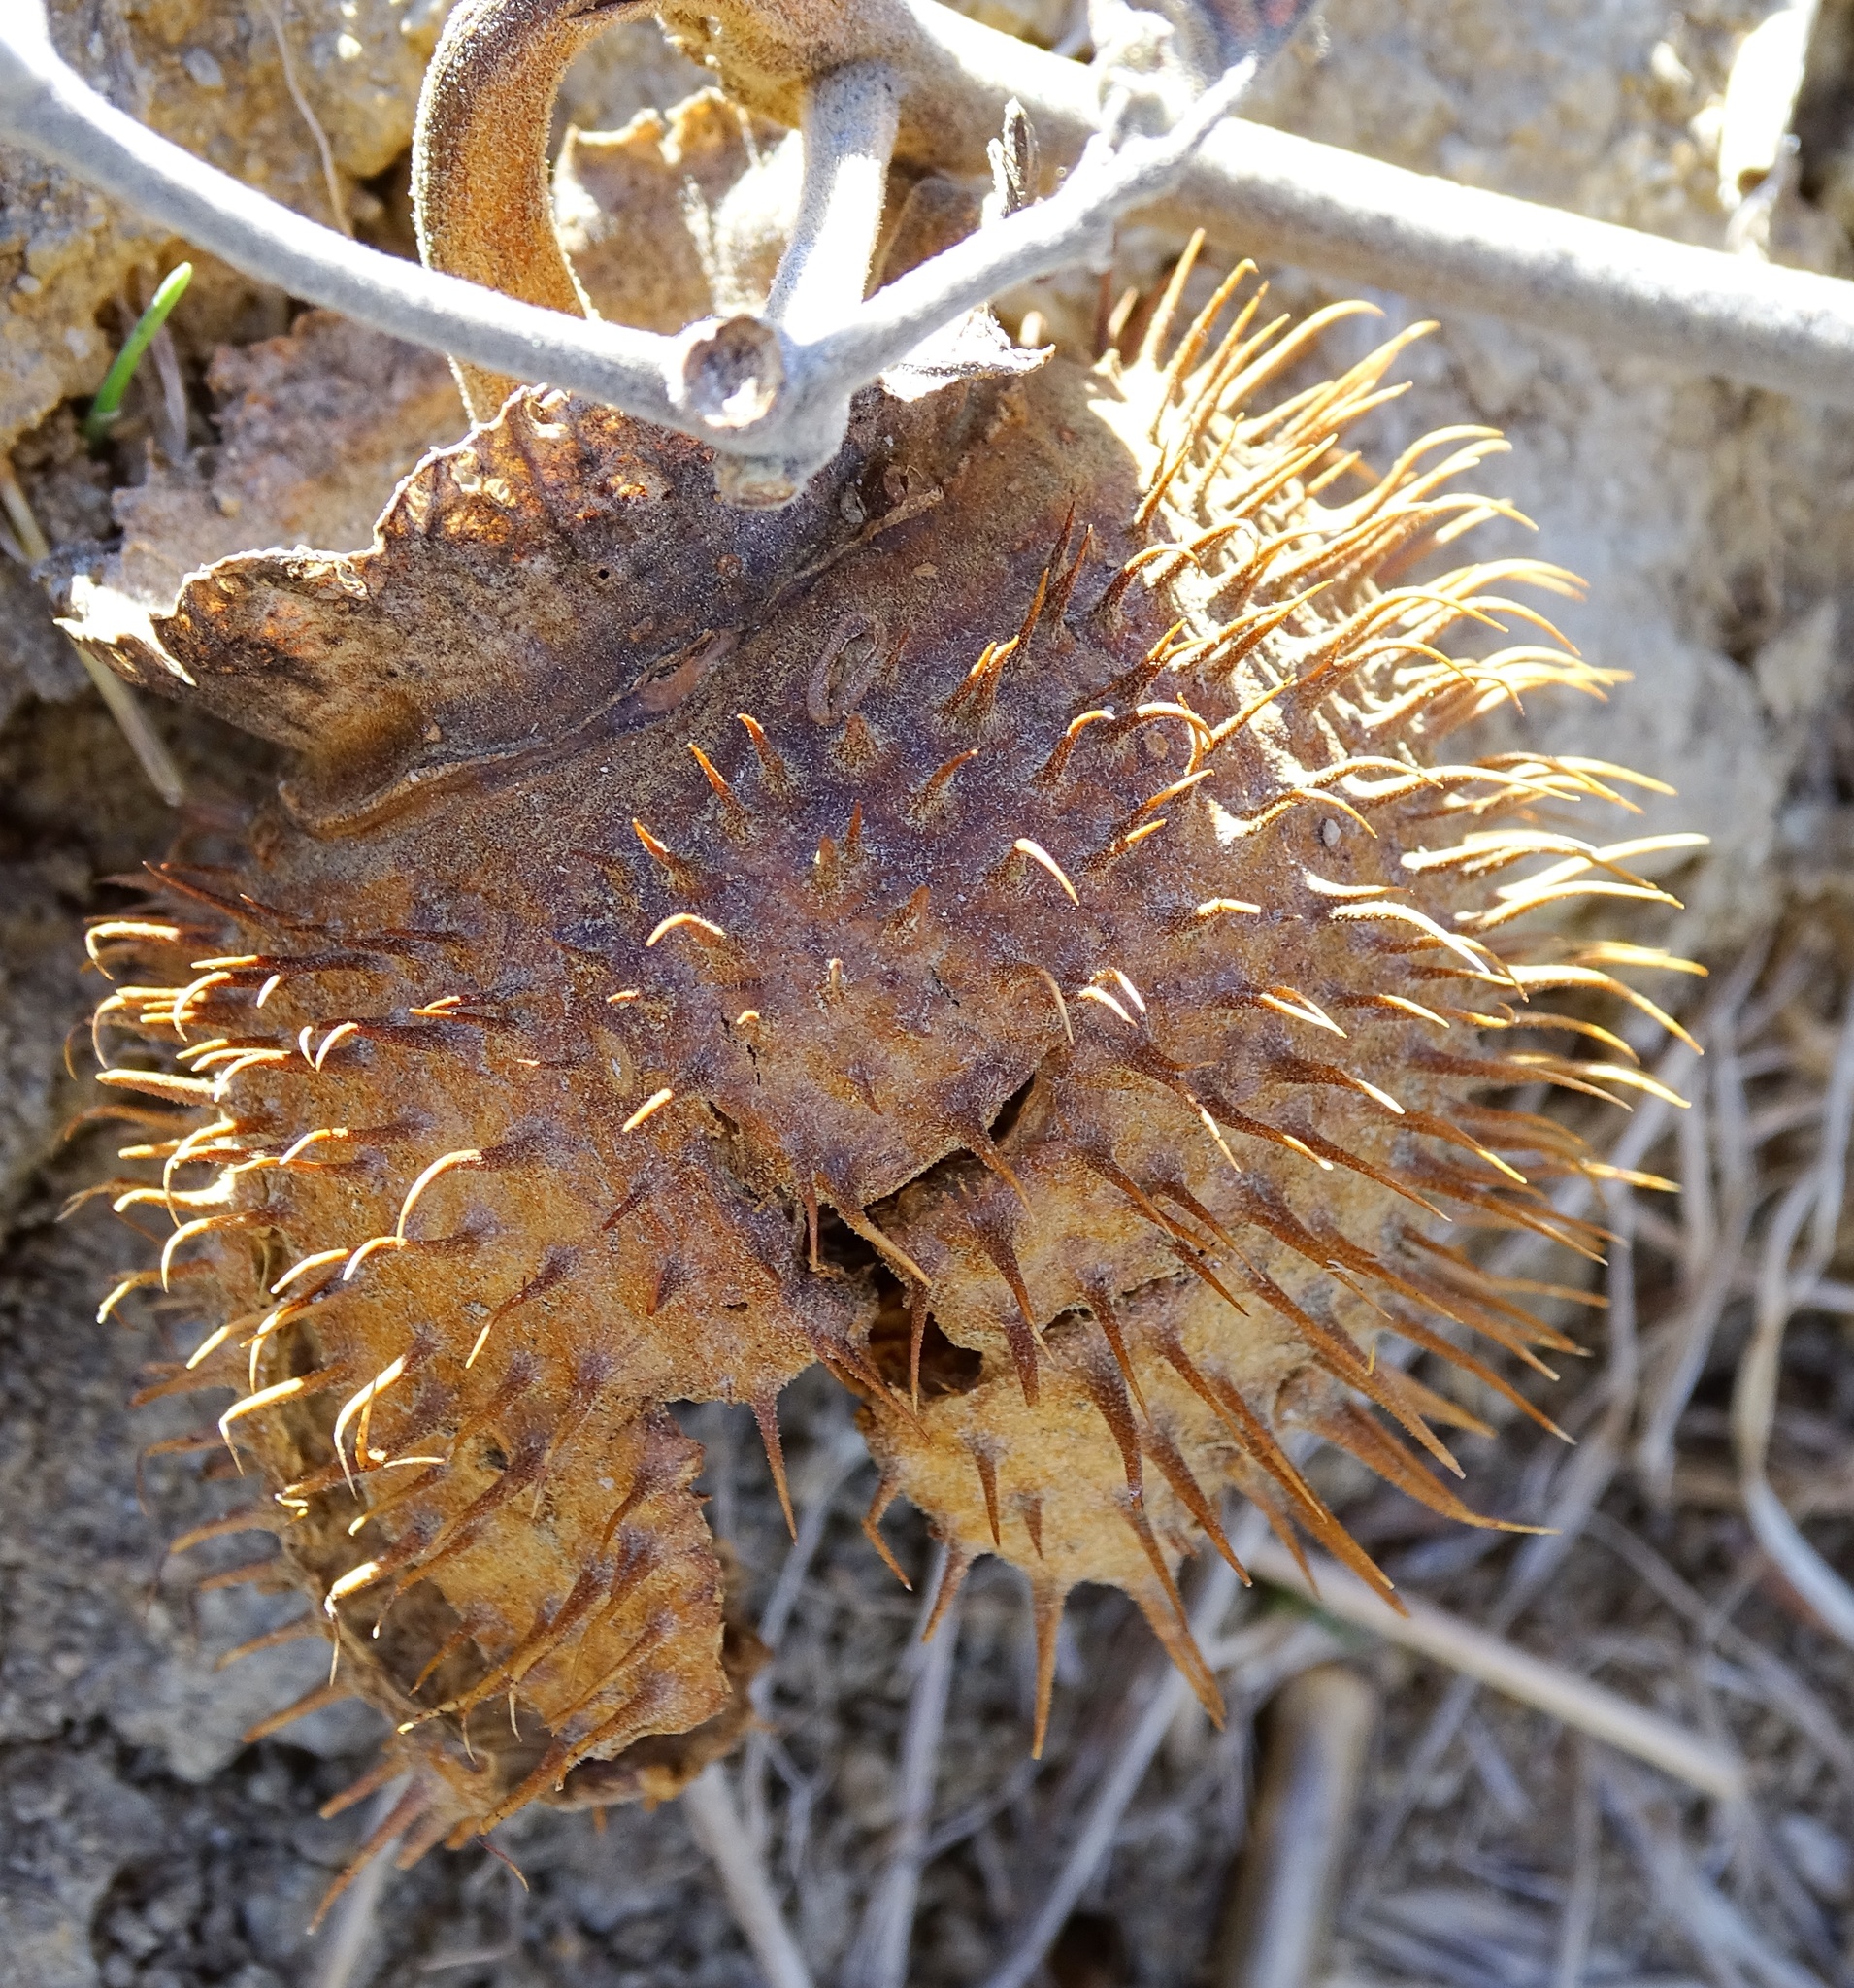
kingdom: Plantae
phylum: Tracheophyta
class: Magnoliopsida
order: Solanales
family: Solanaceae
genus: Datura
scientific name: Datura wrightii
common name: Sacred thorn-apple
